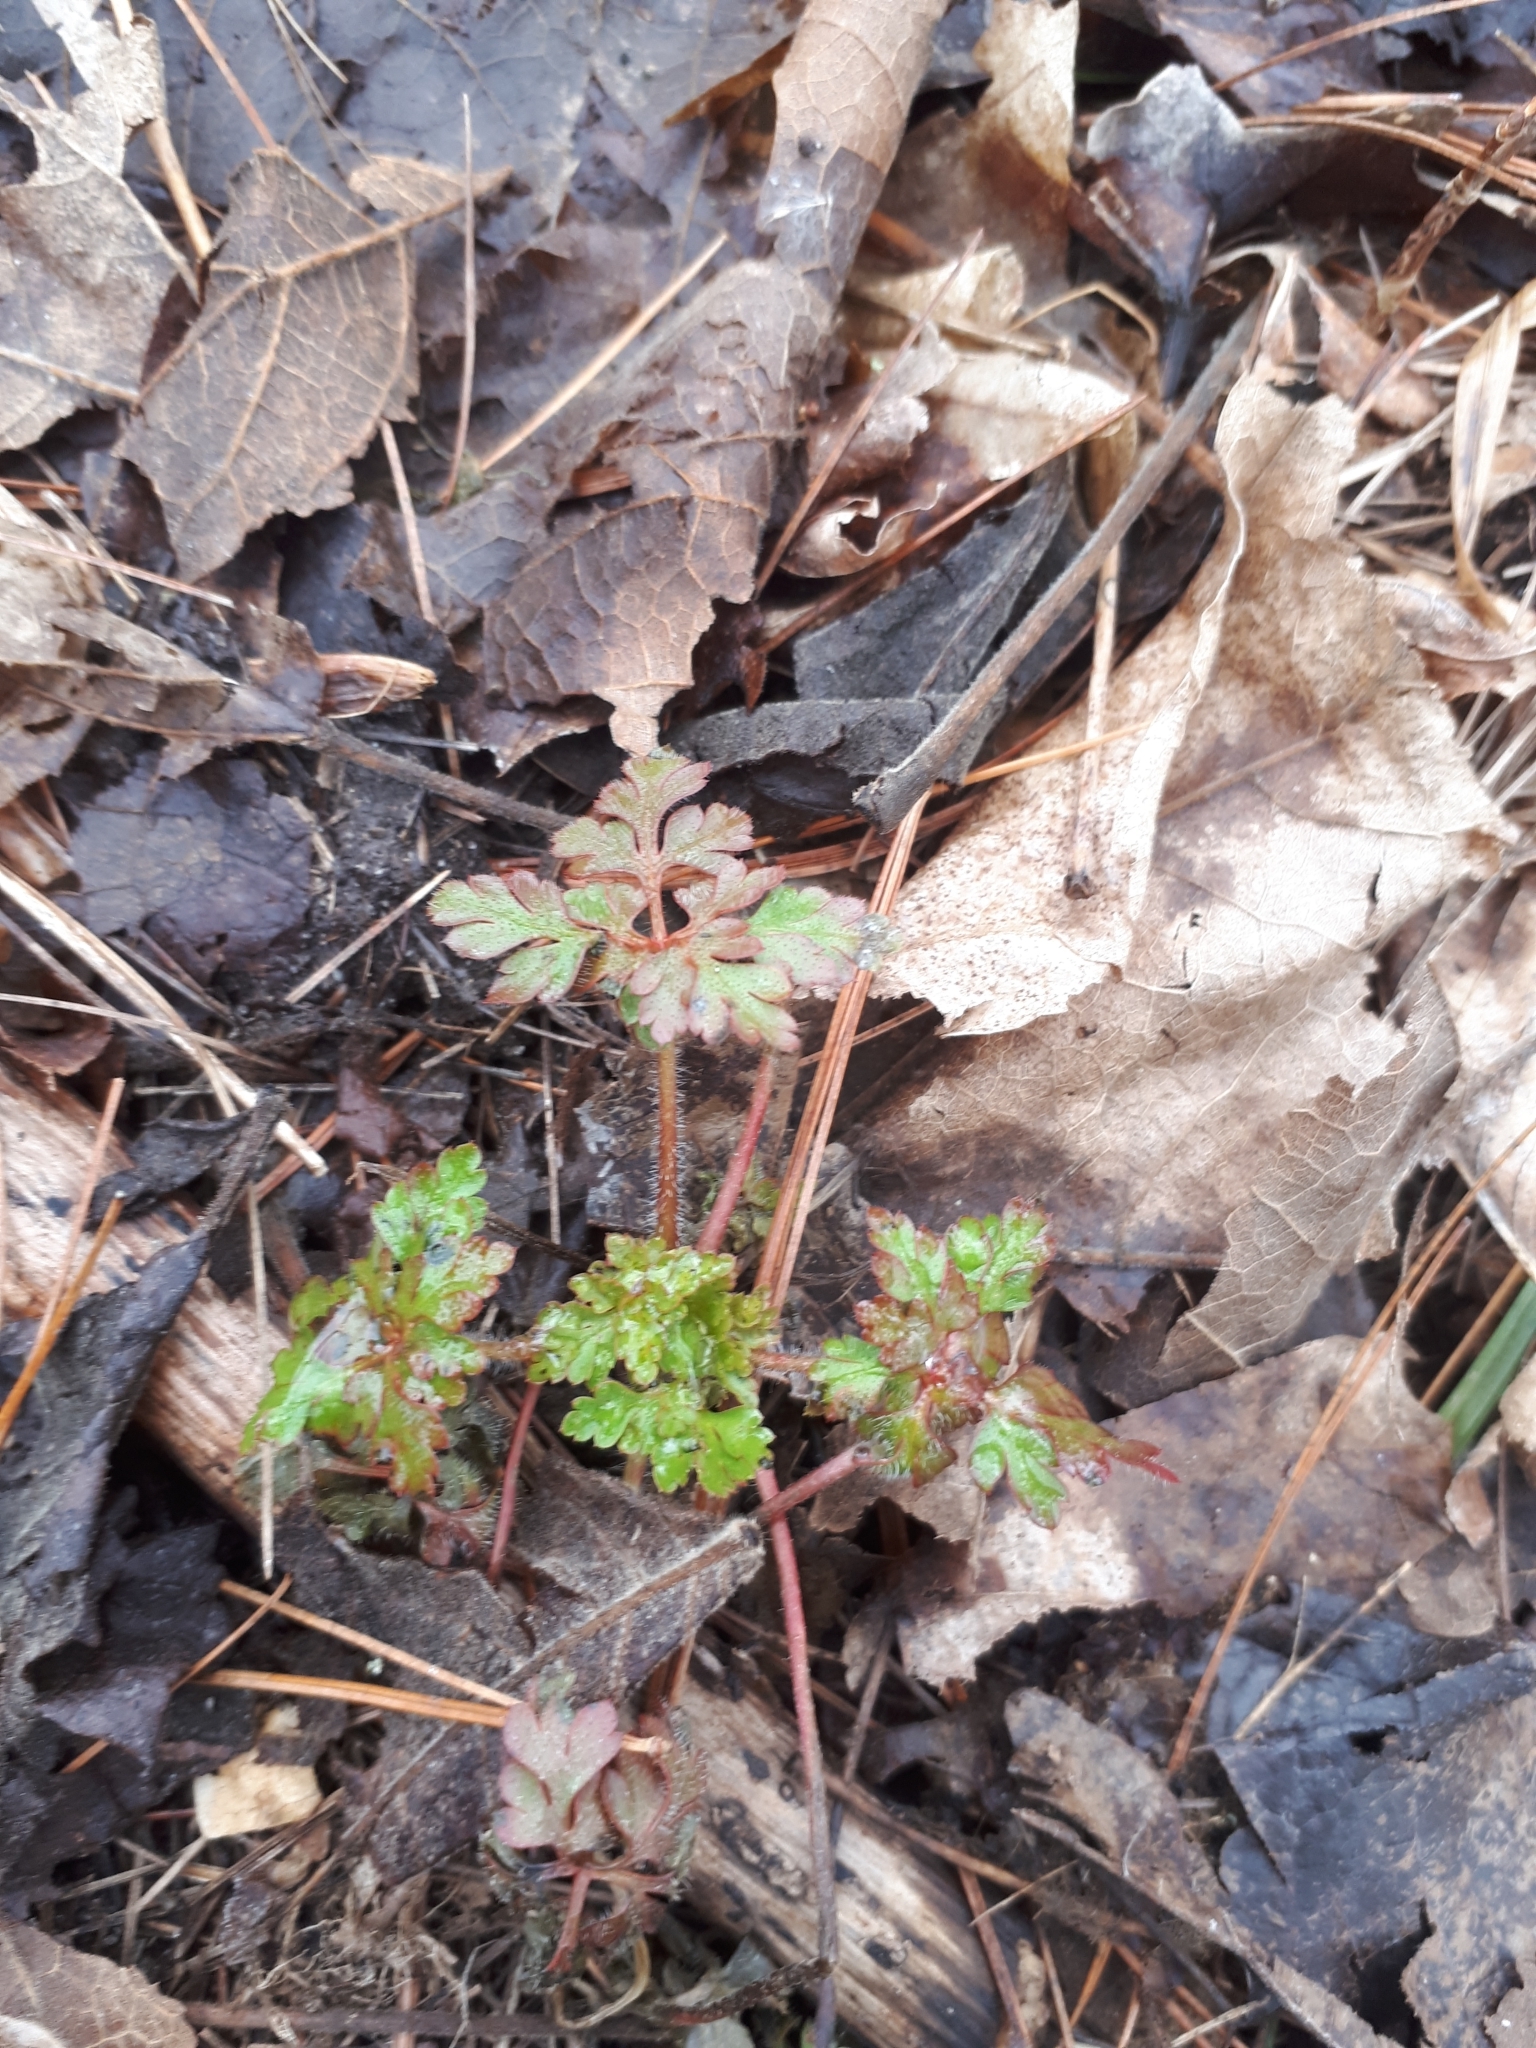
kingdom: Plantae
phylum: Tracheophyta
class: Magnoliopsida
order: Geraniales
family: Geraniaceae
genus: Geranium
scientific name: Geranium robertianum
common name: Herb-robert
